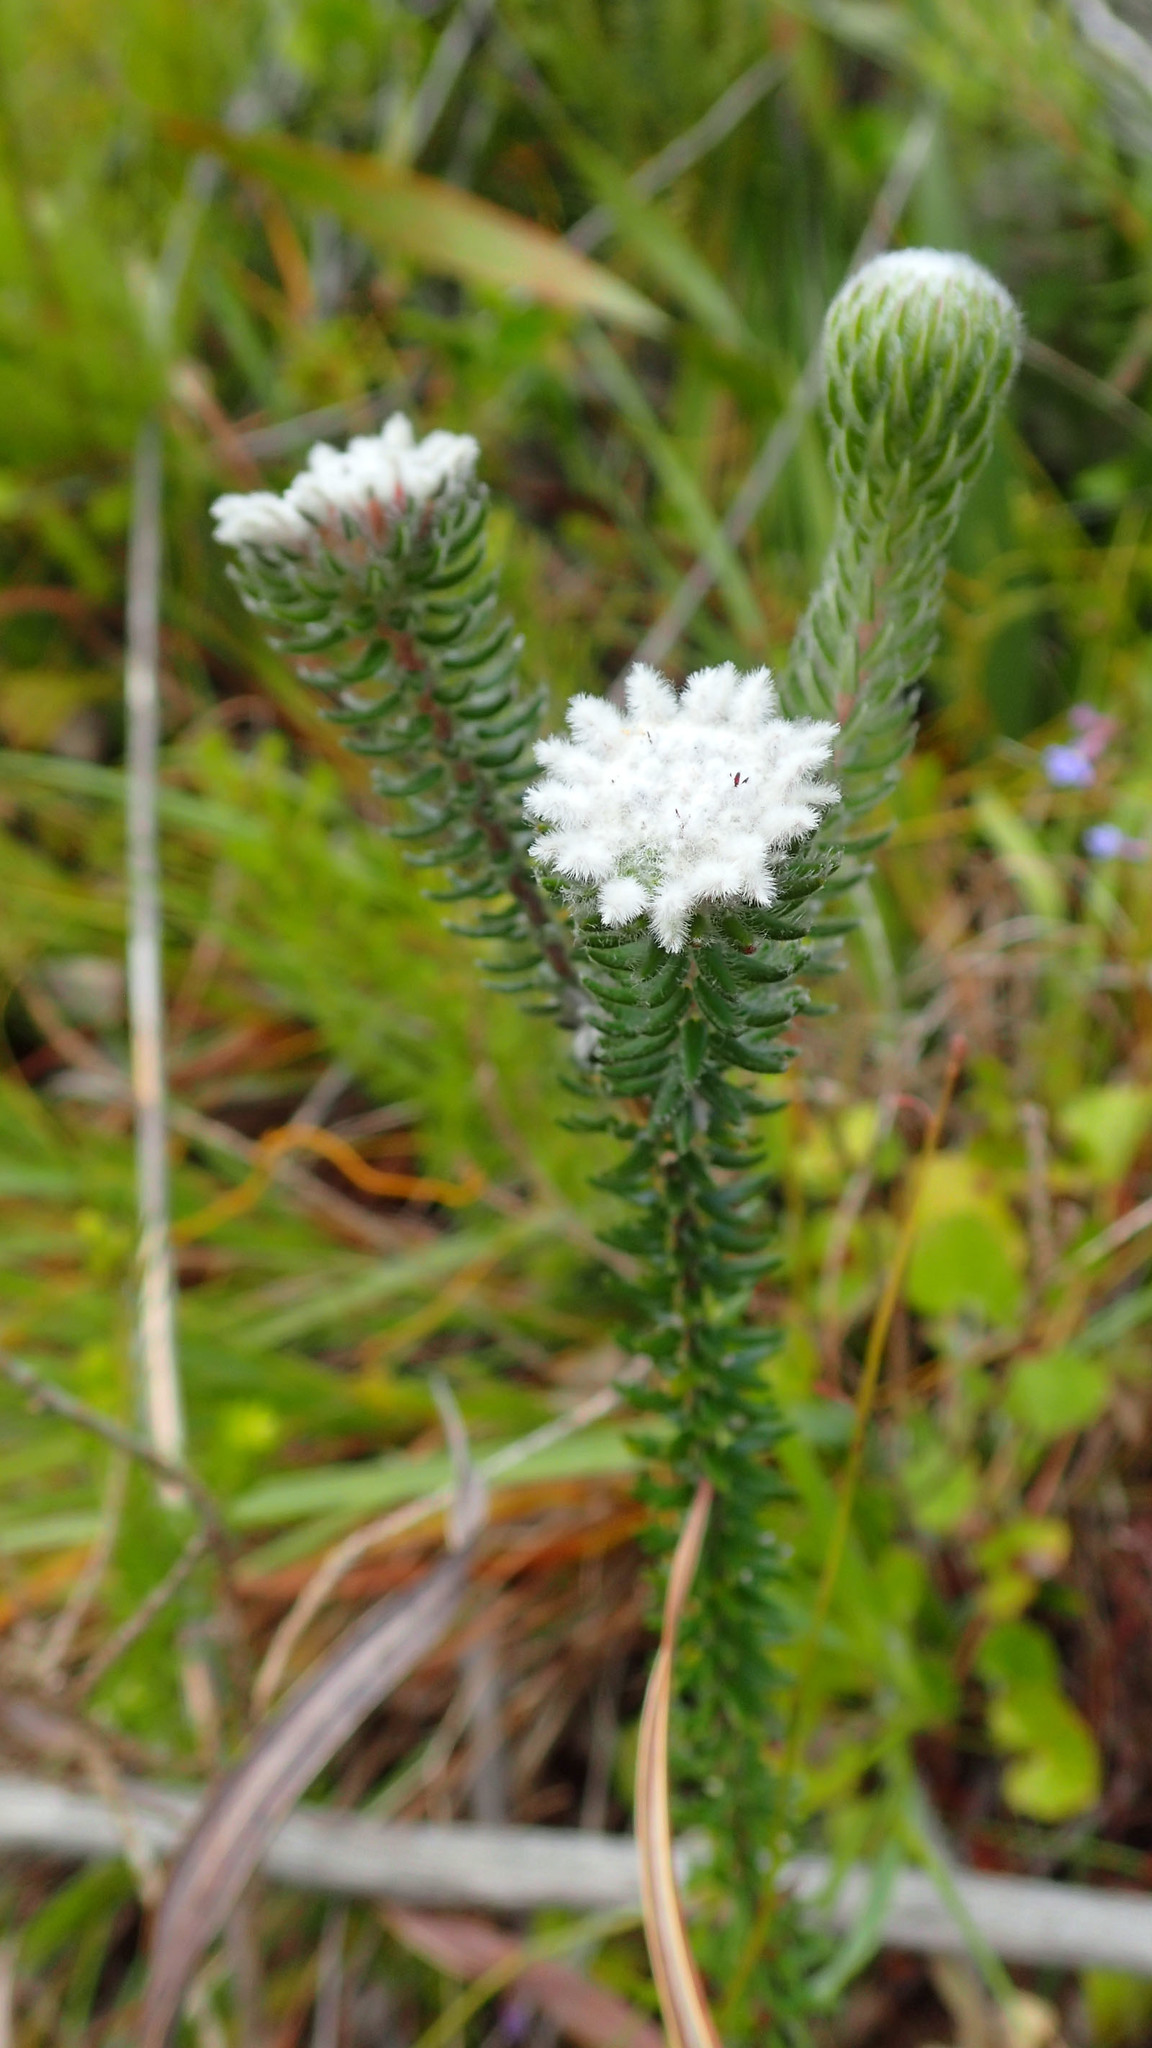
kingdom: Plantae
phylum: Tracheophyta
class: Magnoliopsida
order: Rosales
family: Rhamnaceae
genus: Phylica
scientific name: Phylica curvifolia
